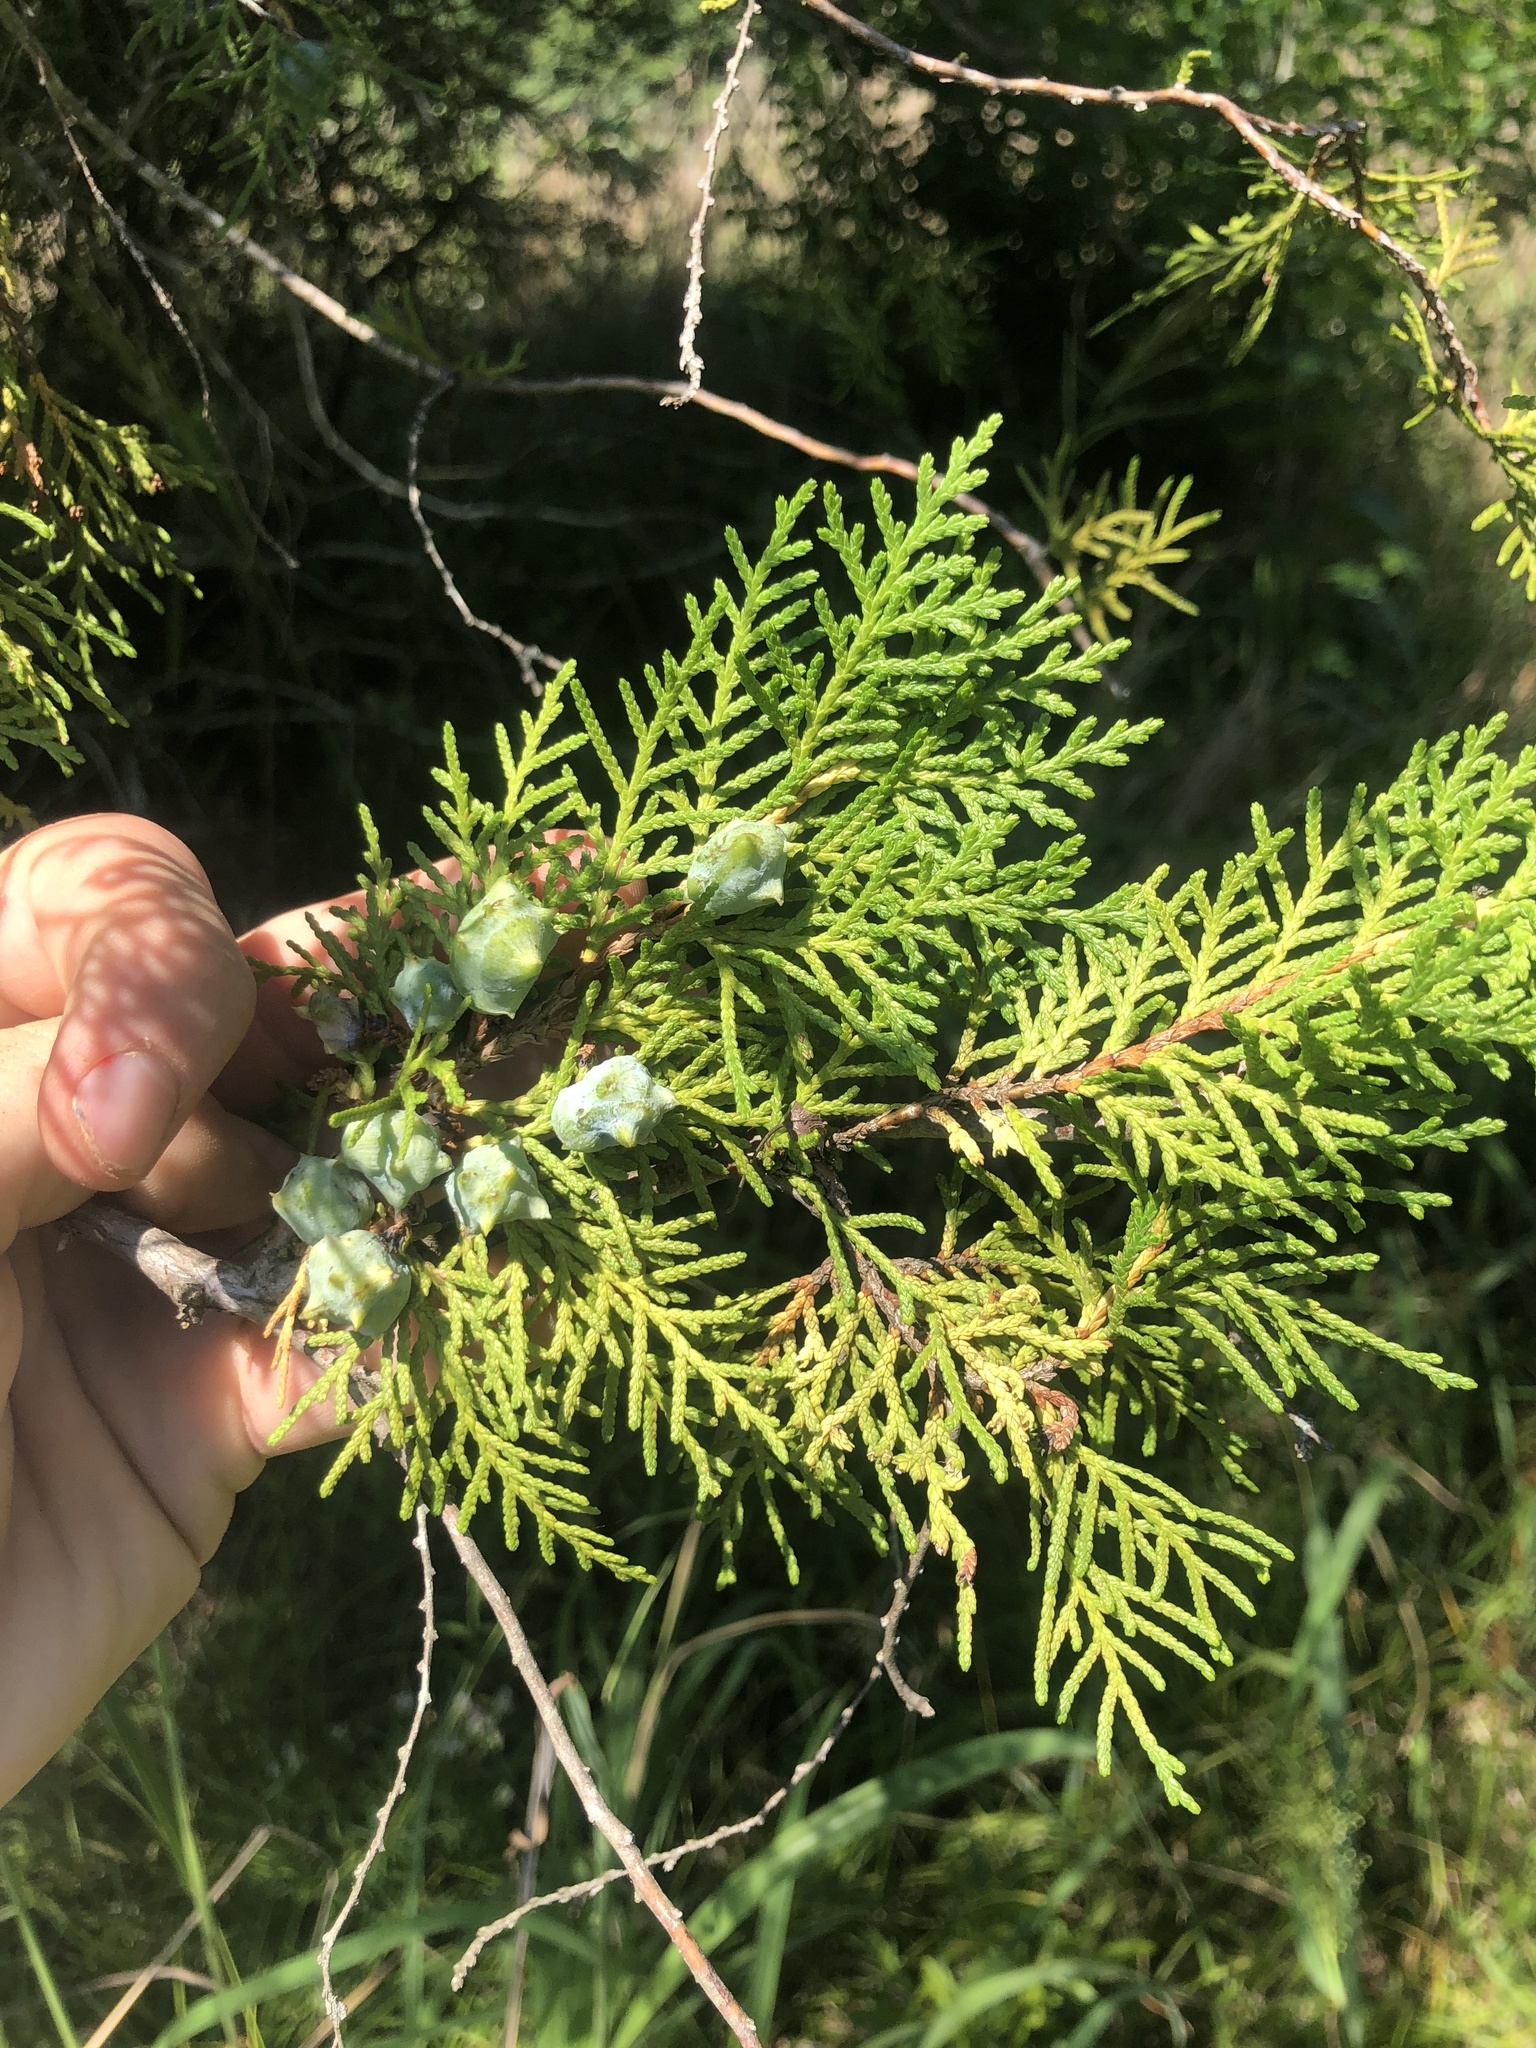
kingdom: Plantae
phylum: Tracheophyta
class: Pinopsida
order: Pinales
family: Cupressaceae
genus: Platycladus
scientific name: Platycladus orientalis
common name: Chinese thuja
